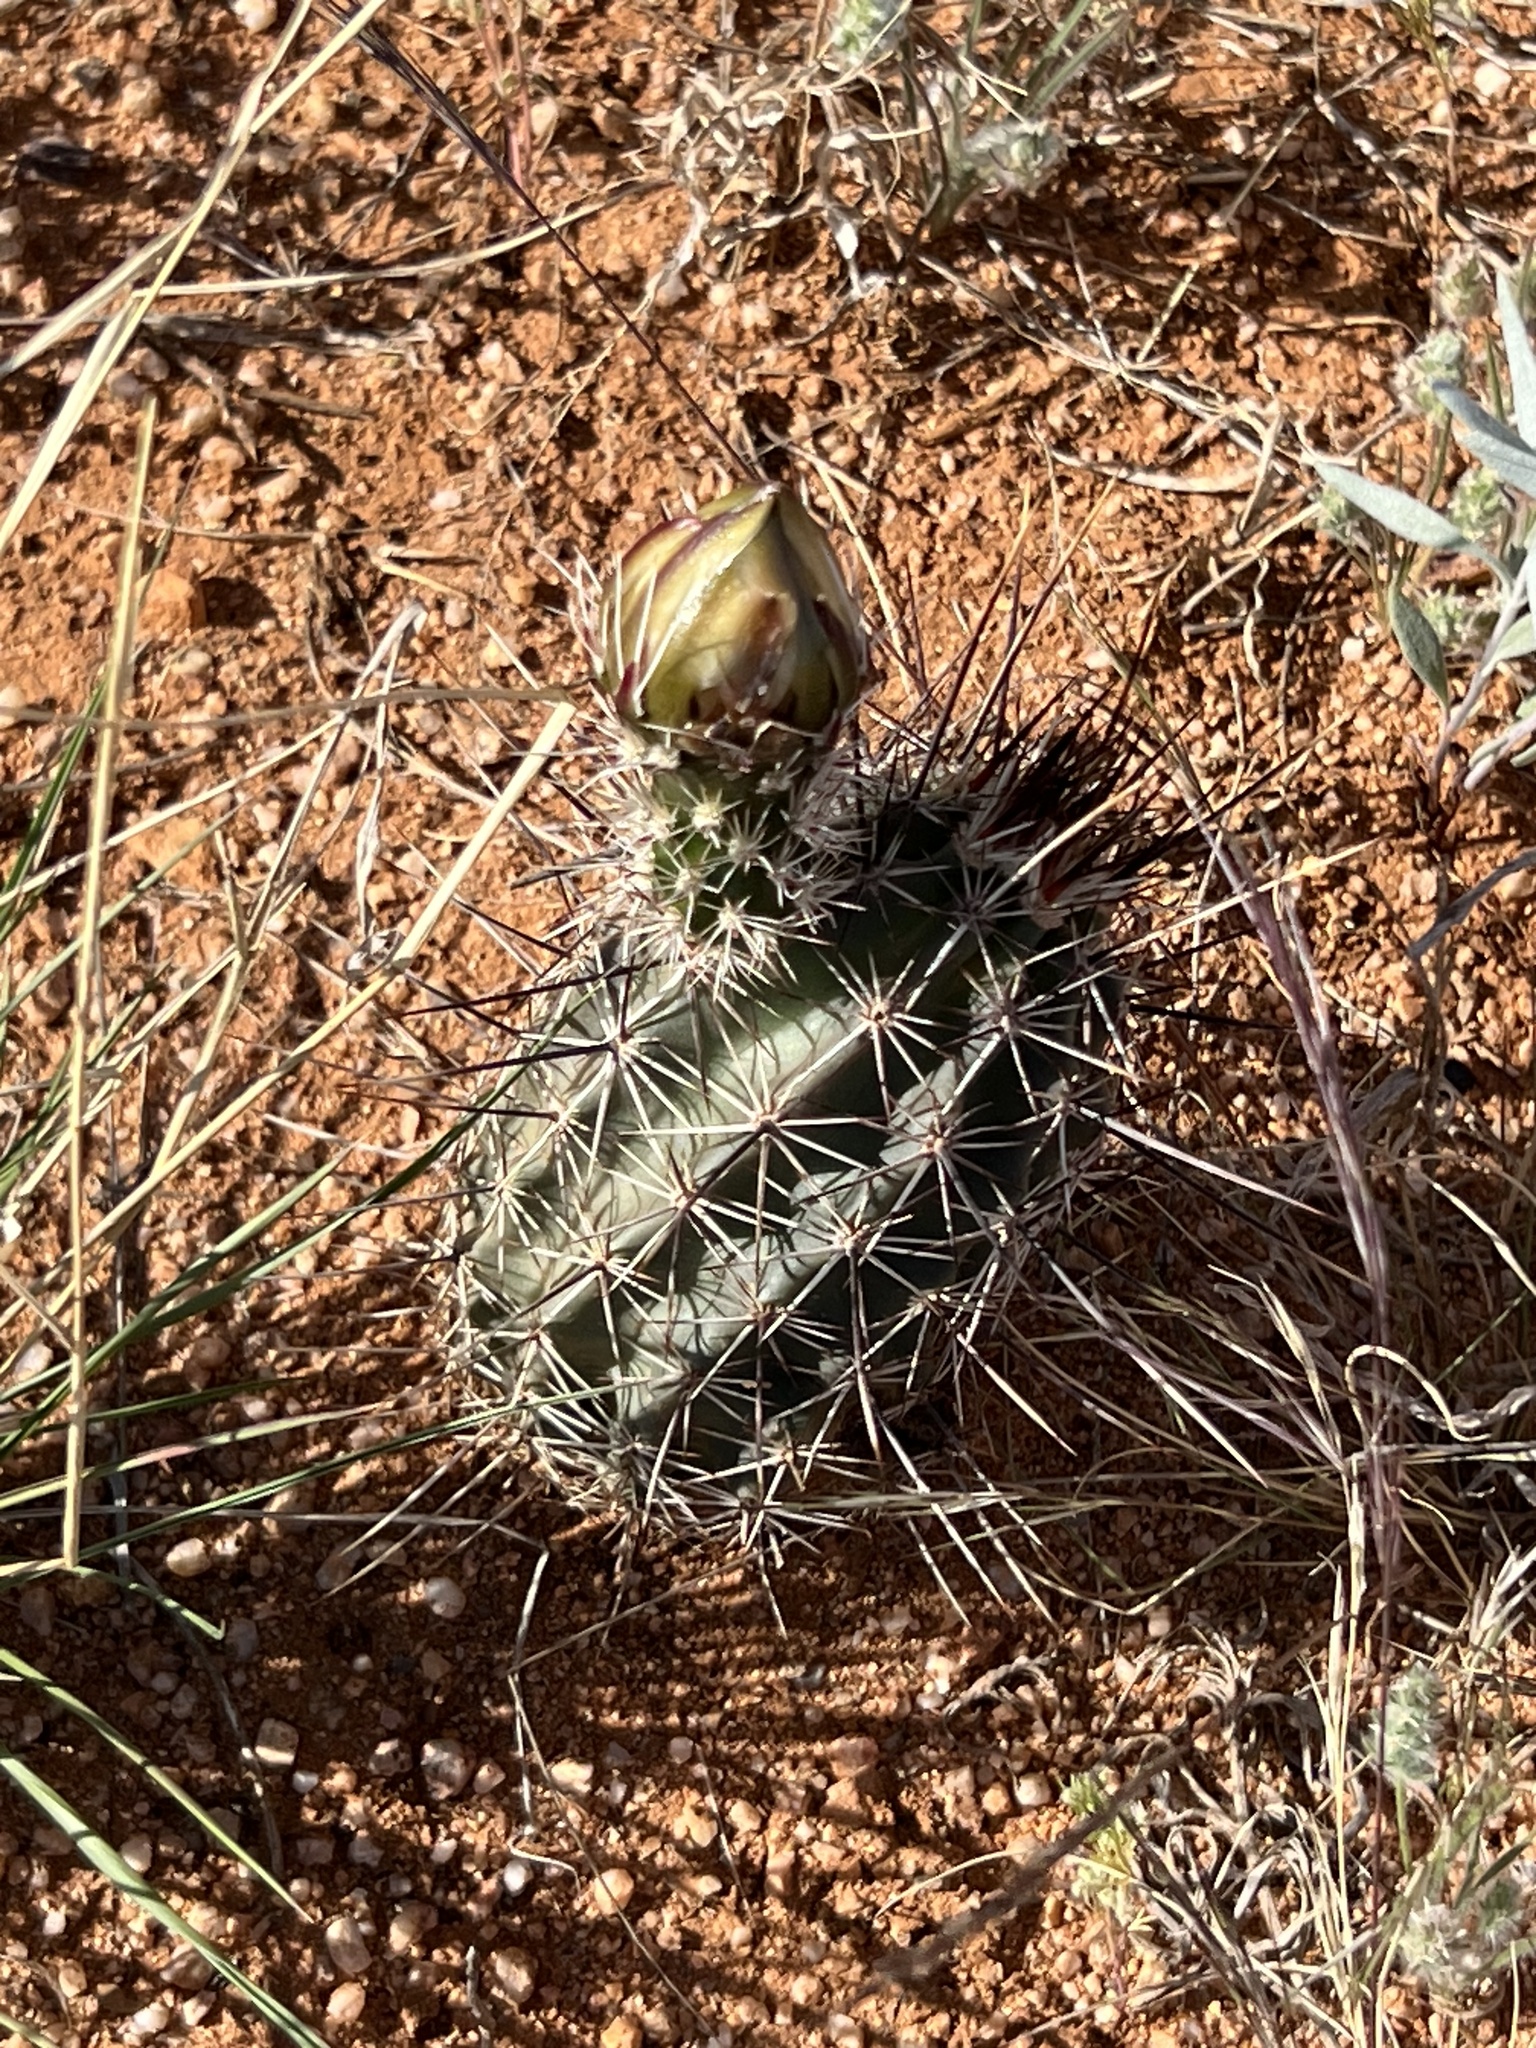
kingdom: Plantae
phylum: Tracheophyta
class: Magnoliopsida
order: Caryophyllales
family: Cactaceae
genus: Echinocereus
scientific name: Echinocereus fasciculatus
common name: Bundle hedgehog
